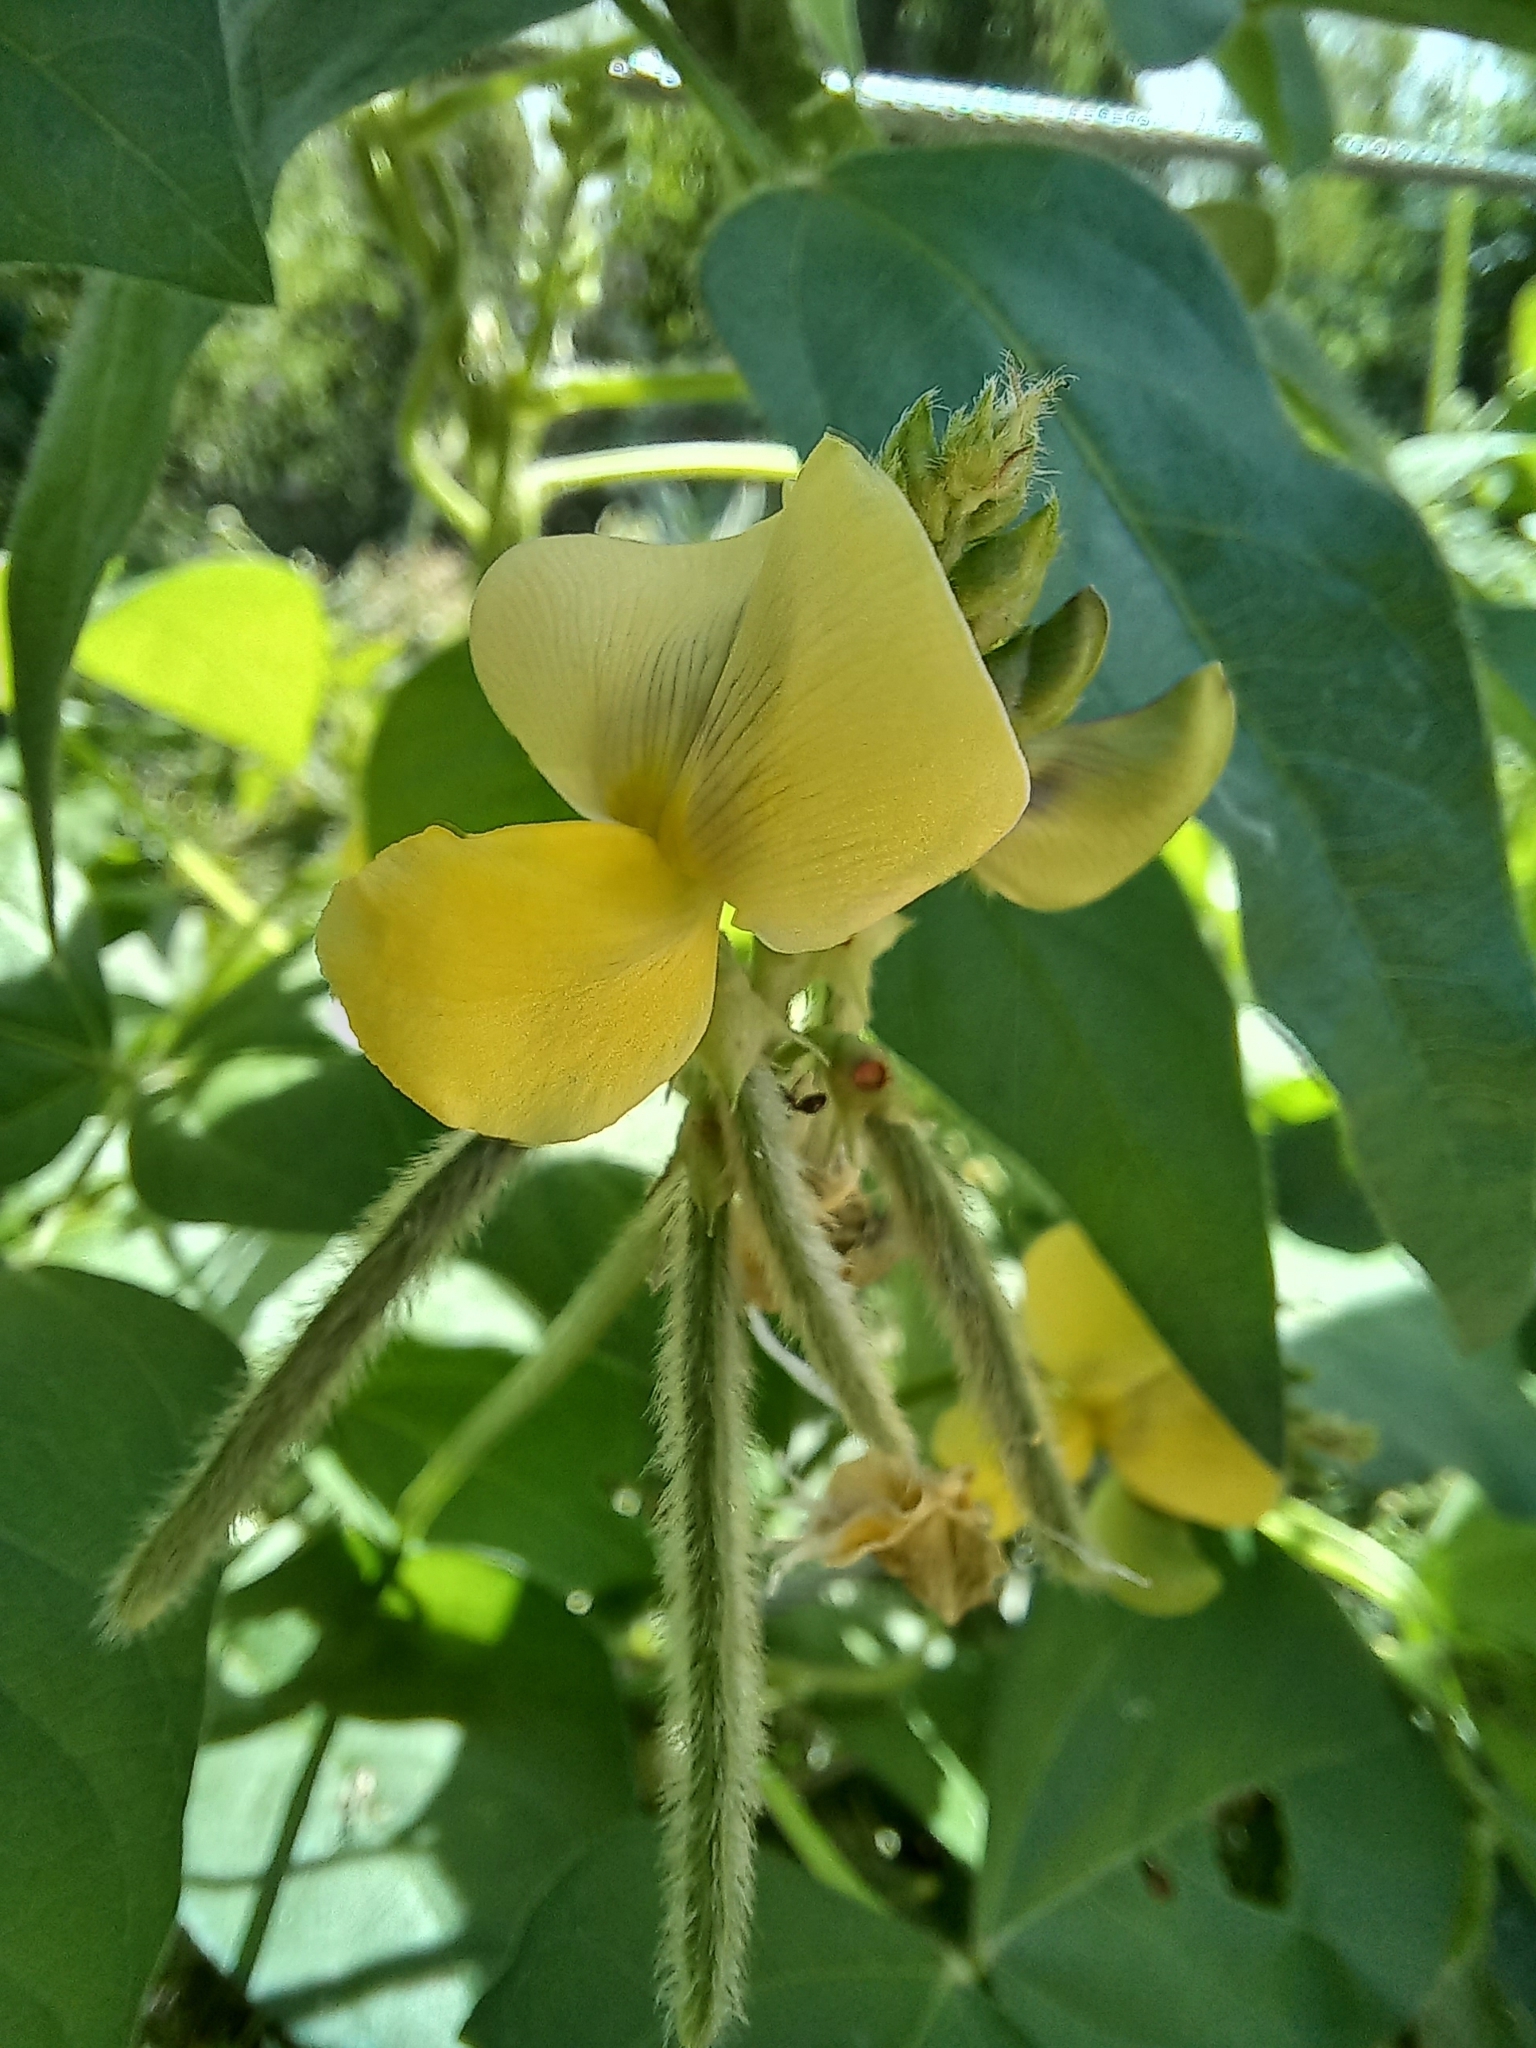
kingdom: Plantae
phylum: Tracheophyta
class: Magnoliopsida
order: Fabales
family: Fabaceae
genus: Vigna
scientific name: Vigna luteola
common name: Hairypod cowpea
